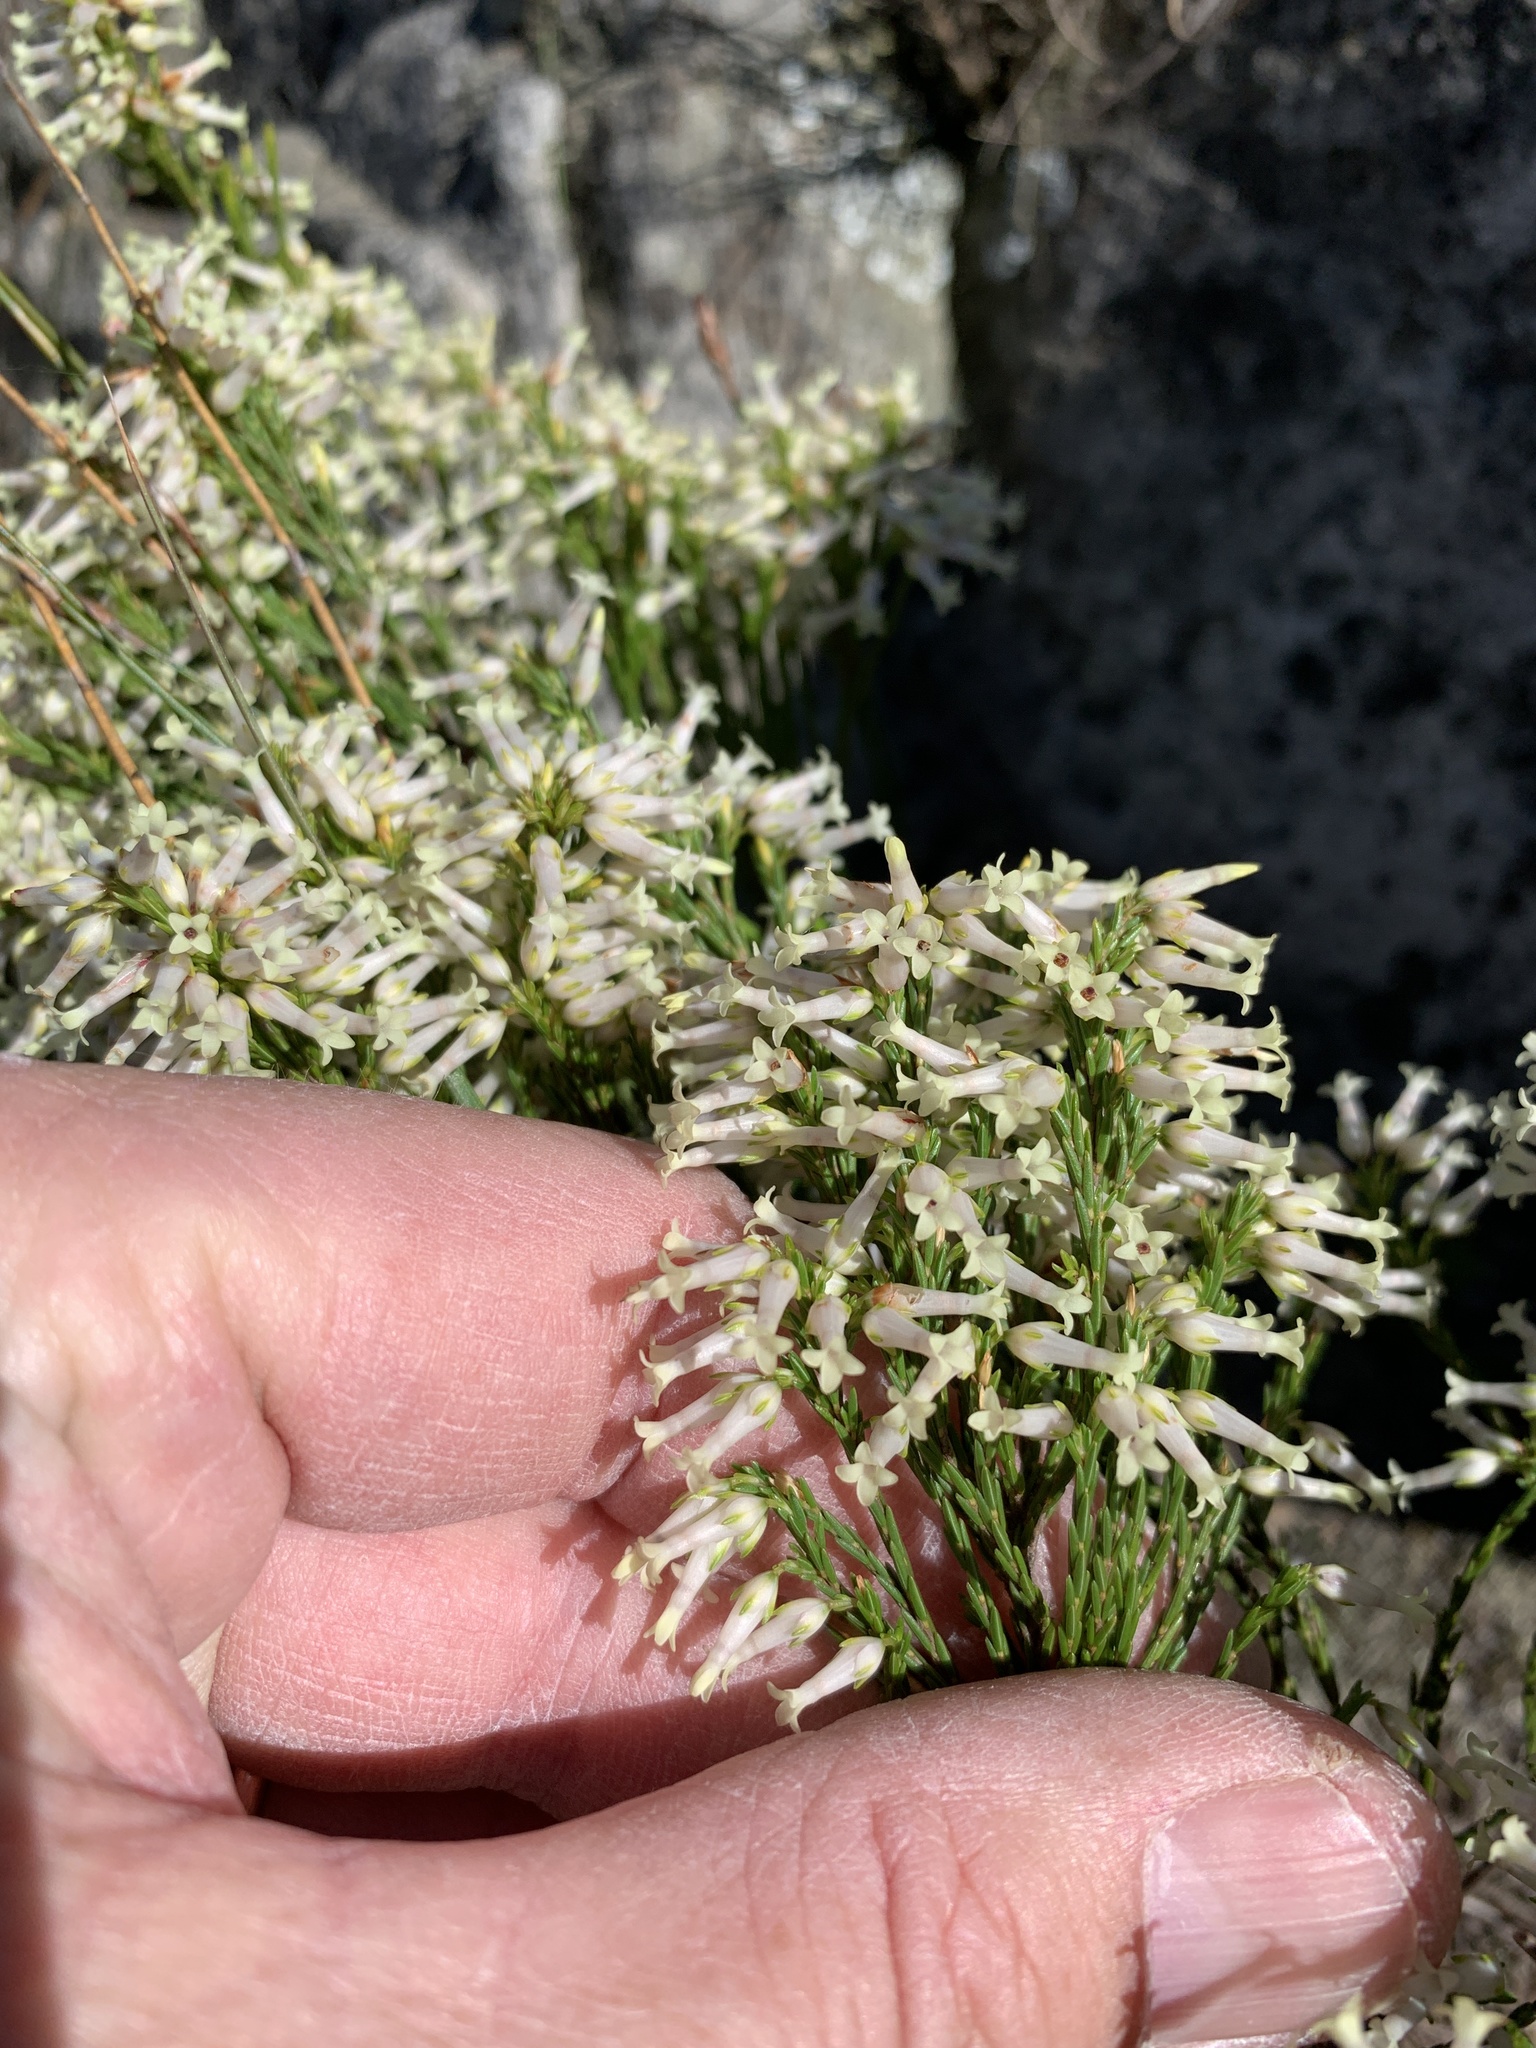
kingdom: Plantae
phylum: Tracheophyta
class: Magnoliopsida
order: Ericales
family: Ericaceae
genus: Erica
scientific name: Erica lutea
